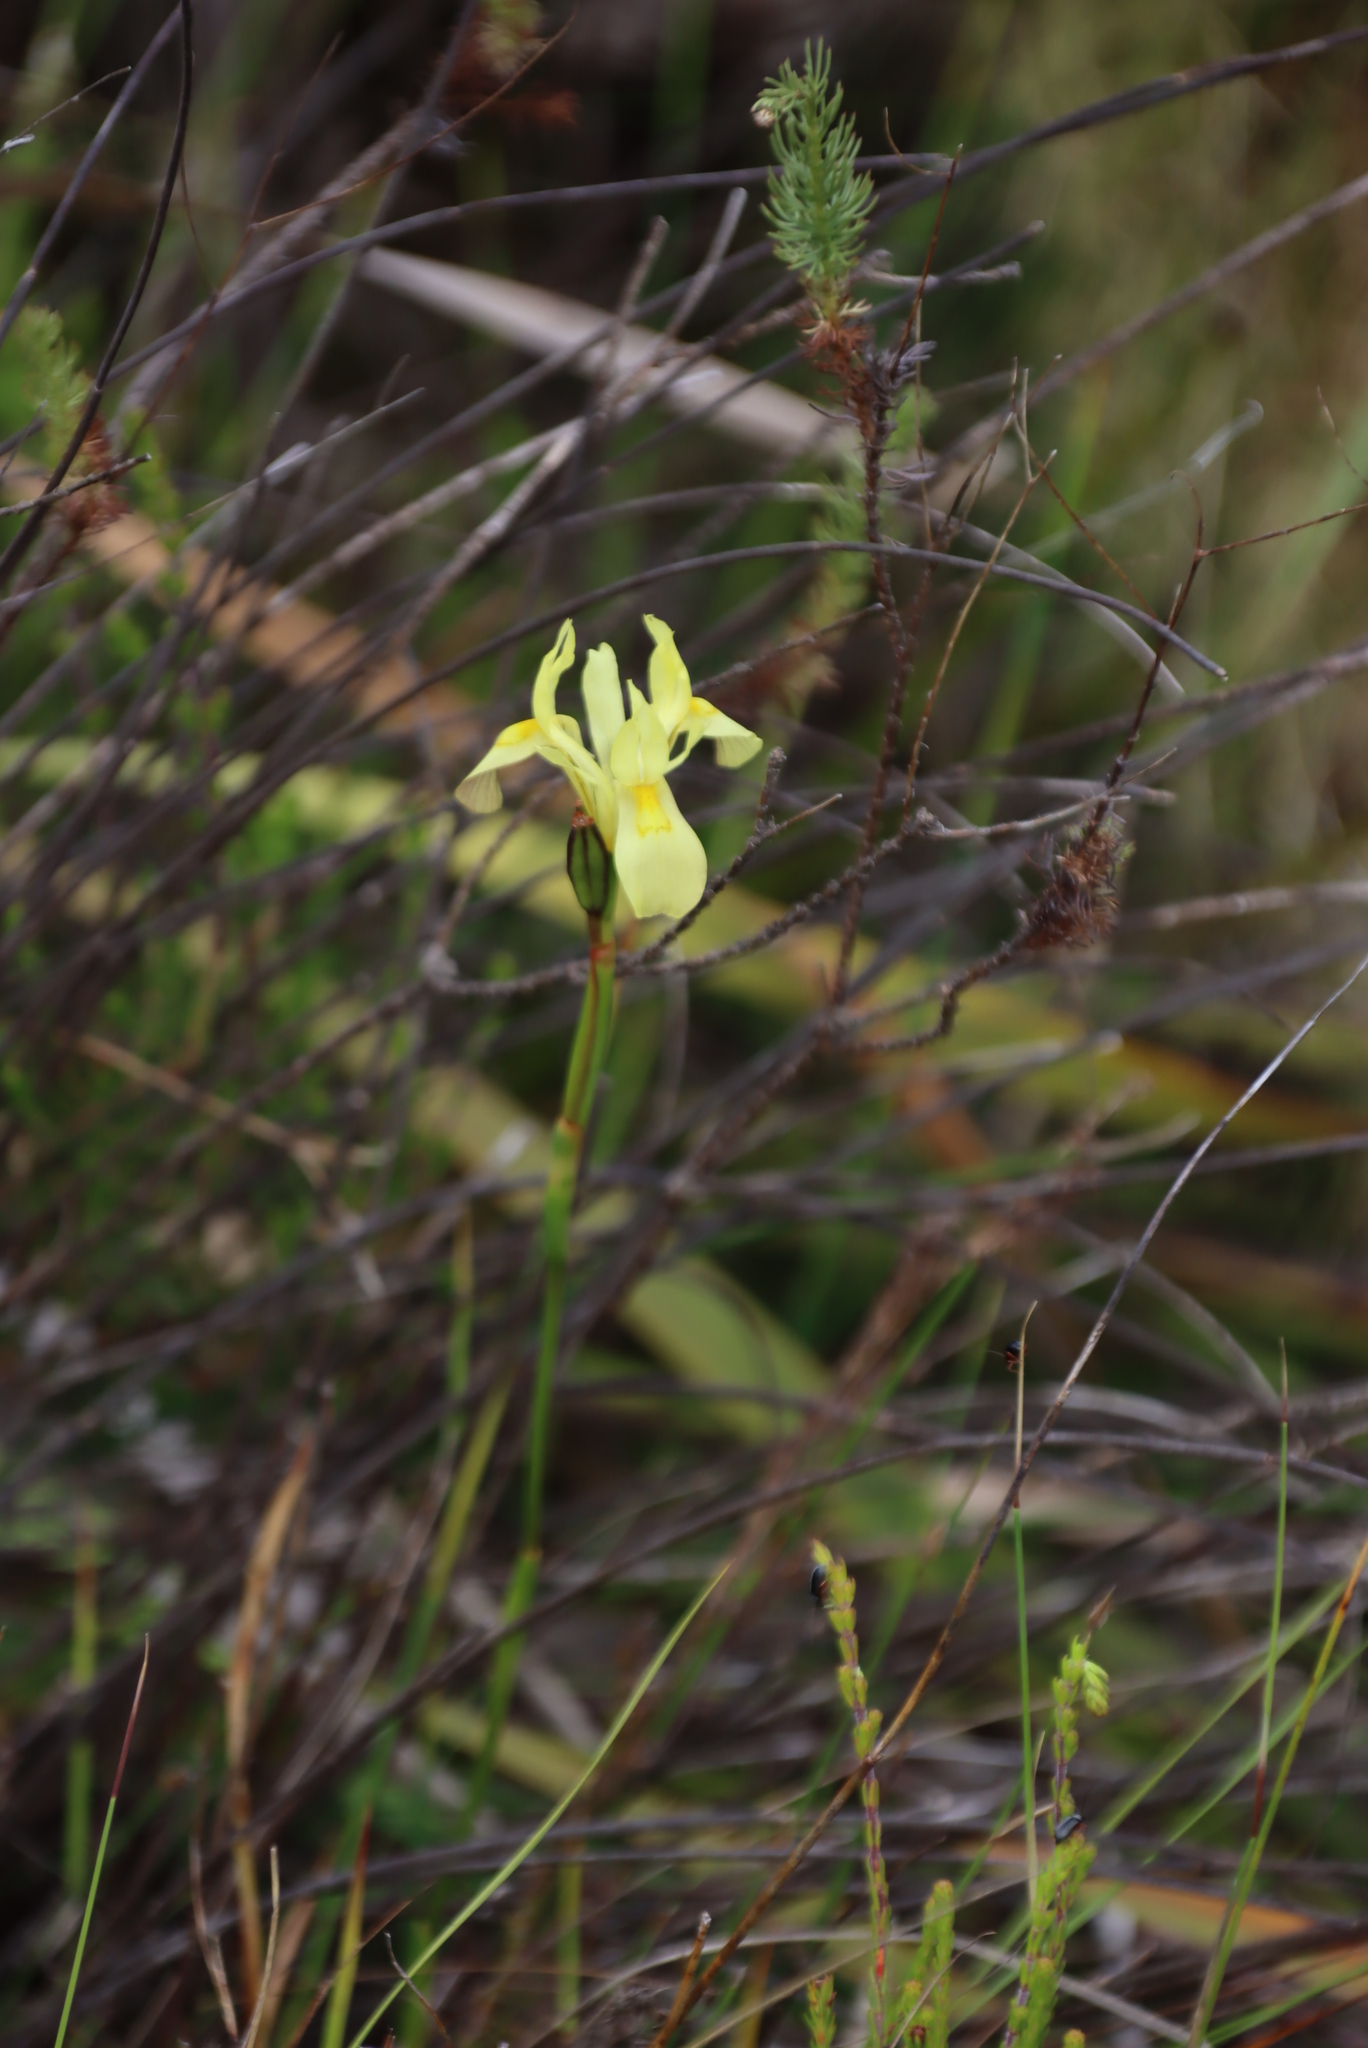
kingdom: Plantae
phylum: Tracheophyta
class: Liliopsida
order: Asparagales
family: Iridaceae
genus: Moraea
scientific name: Moraea neglecta
